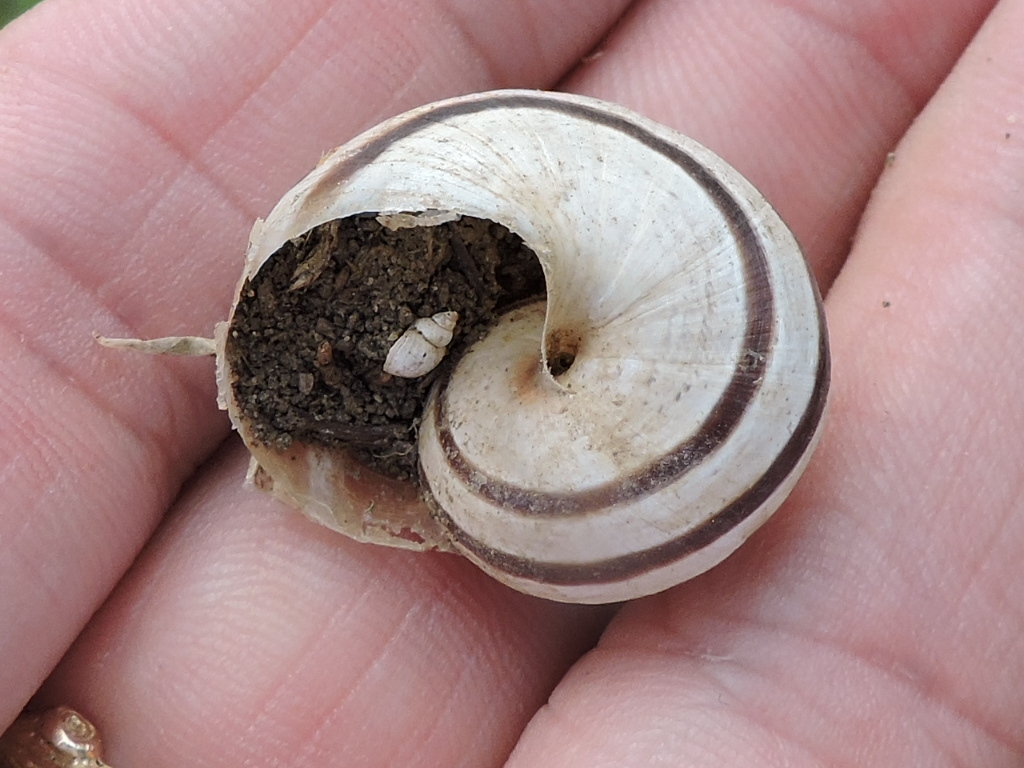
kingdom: Animalia
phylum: Mollusca
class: Gastropoda
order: Stylommatophora
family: Helicidae
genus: Otala
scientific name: Otala lactea
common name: Milk snail
